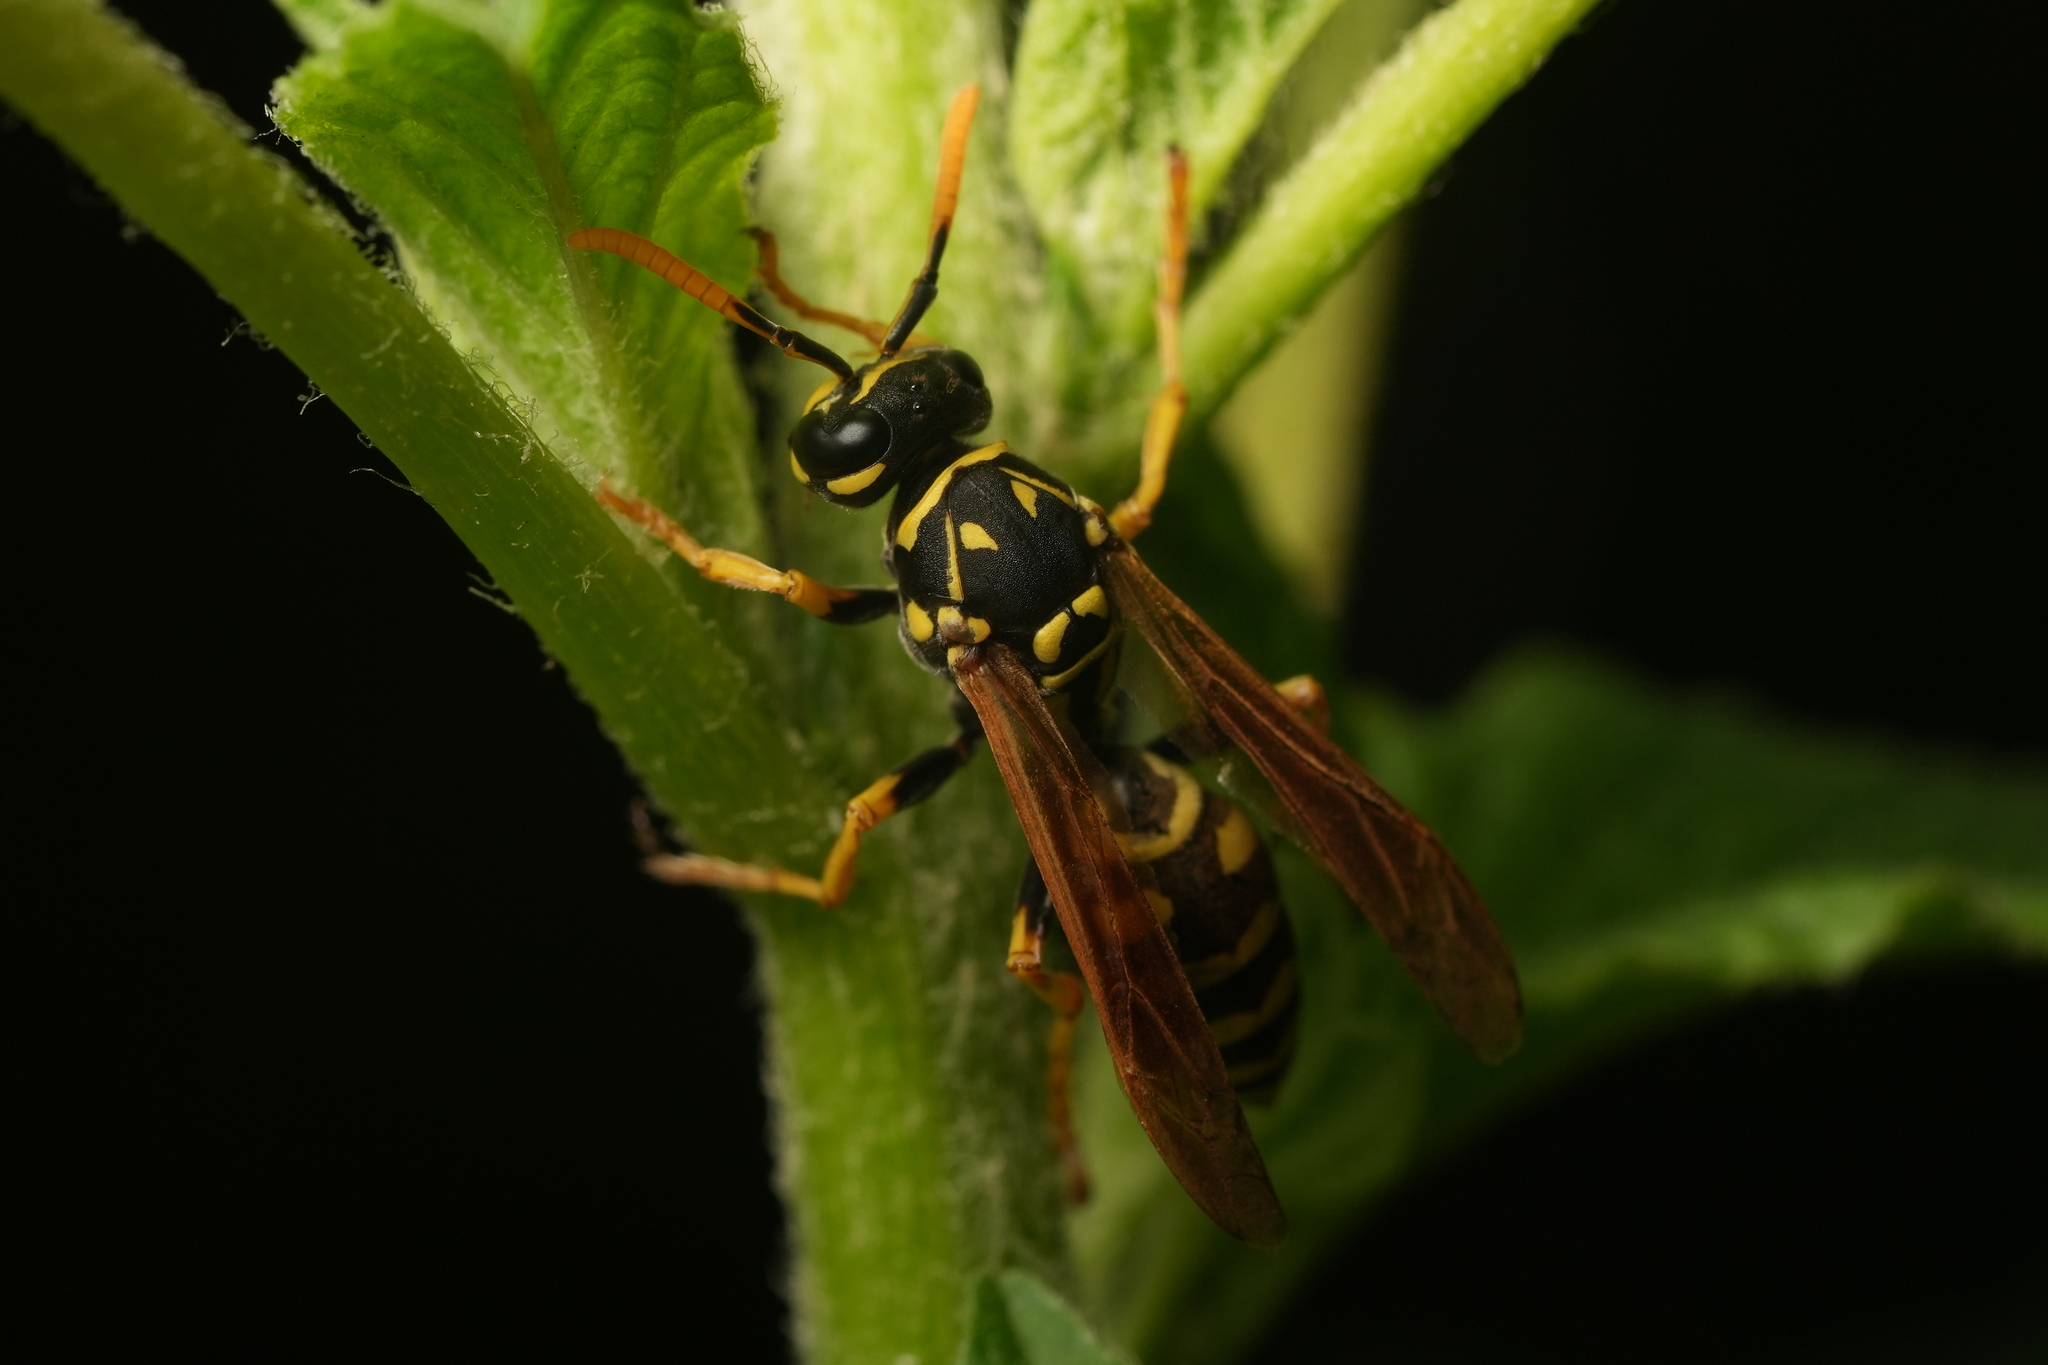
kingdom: Animalia
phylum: Arthropoda
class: Insecta
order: Hymenoptera
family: Eumenidae
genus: Polistes
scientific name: Polistes dominula
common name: Paper wasp
